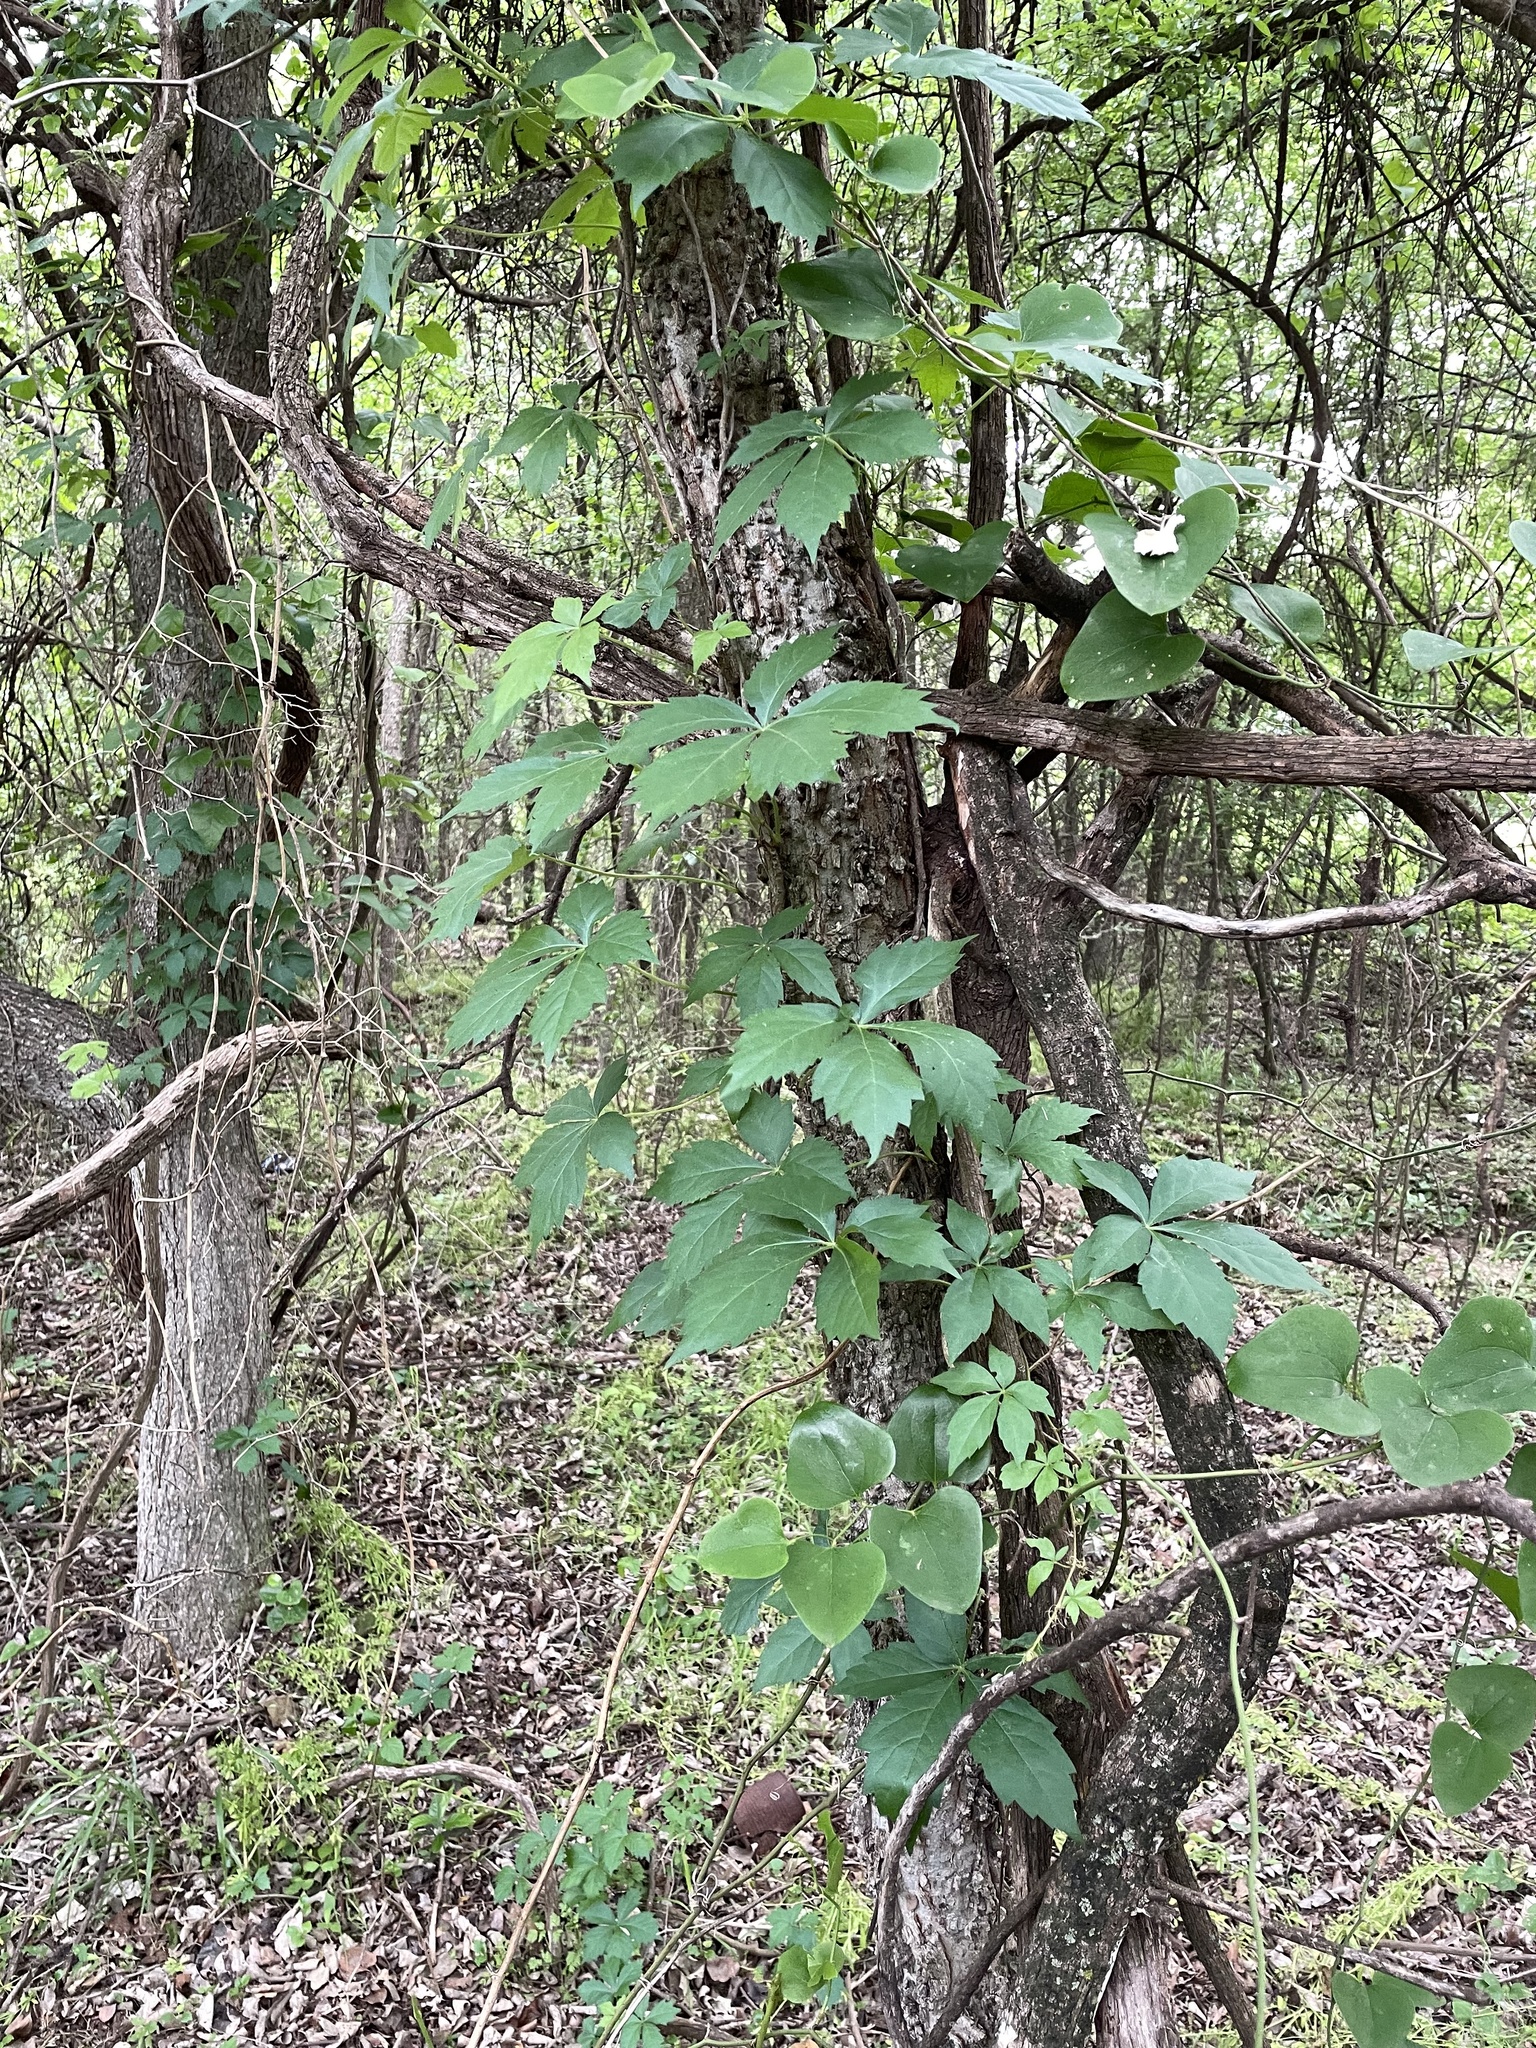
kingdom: Plantae
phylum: Tracheophyta
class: Magnoliopsida
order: Vitales
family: Vitaceae
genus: Parthenocissus
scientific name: Parthenocissus quinquefolia
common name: Virginia-creeper
